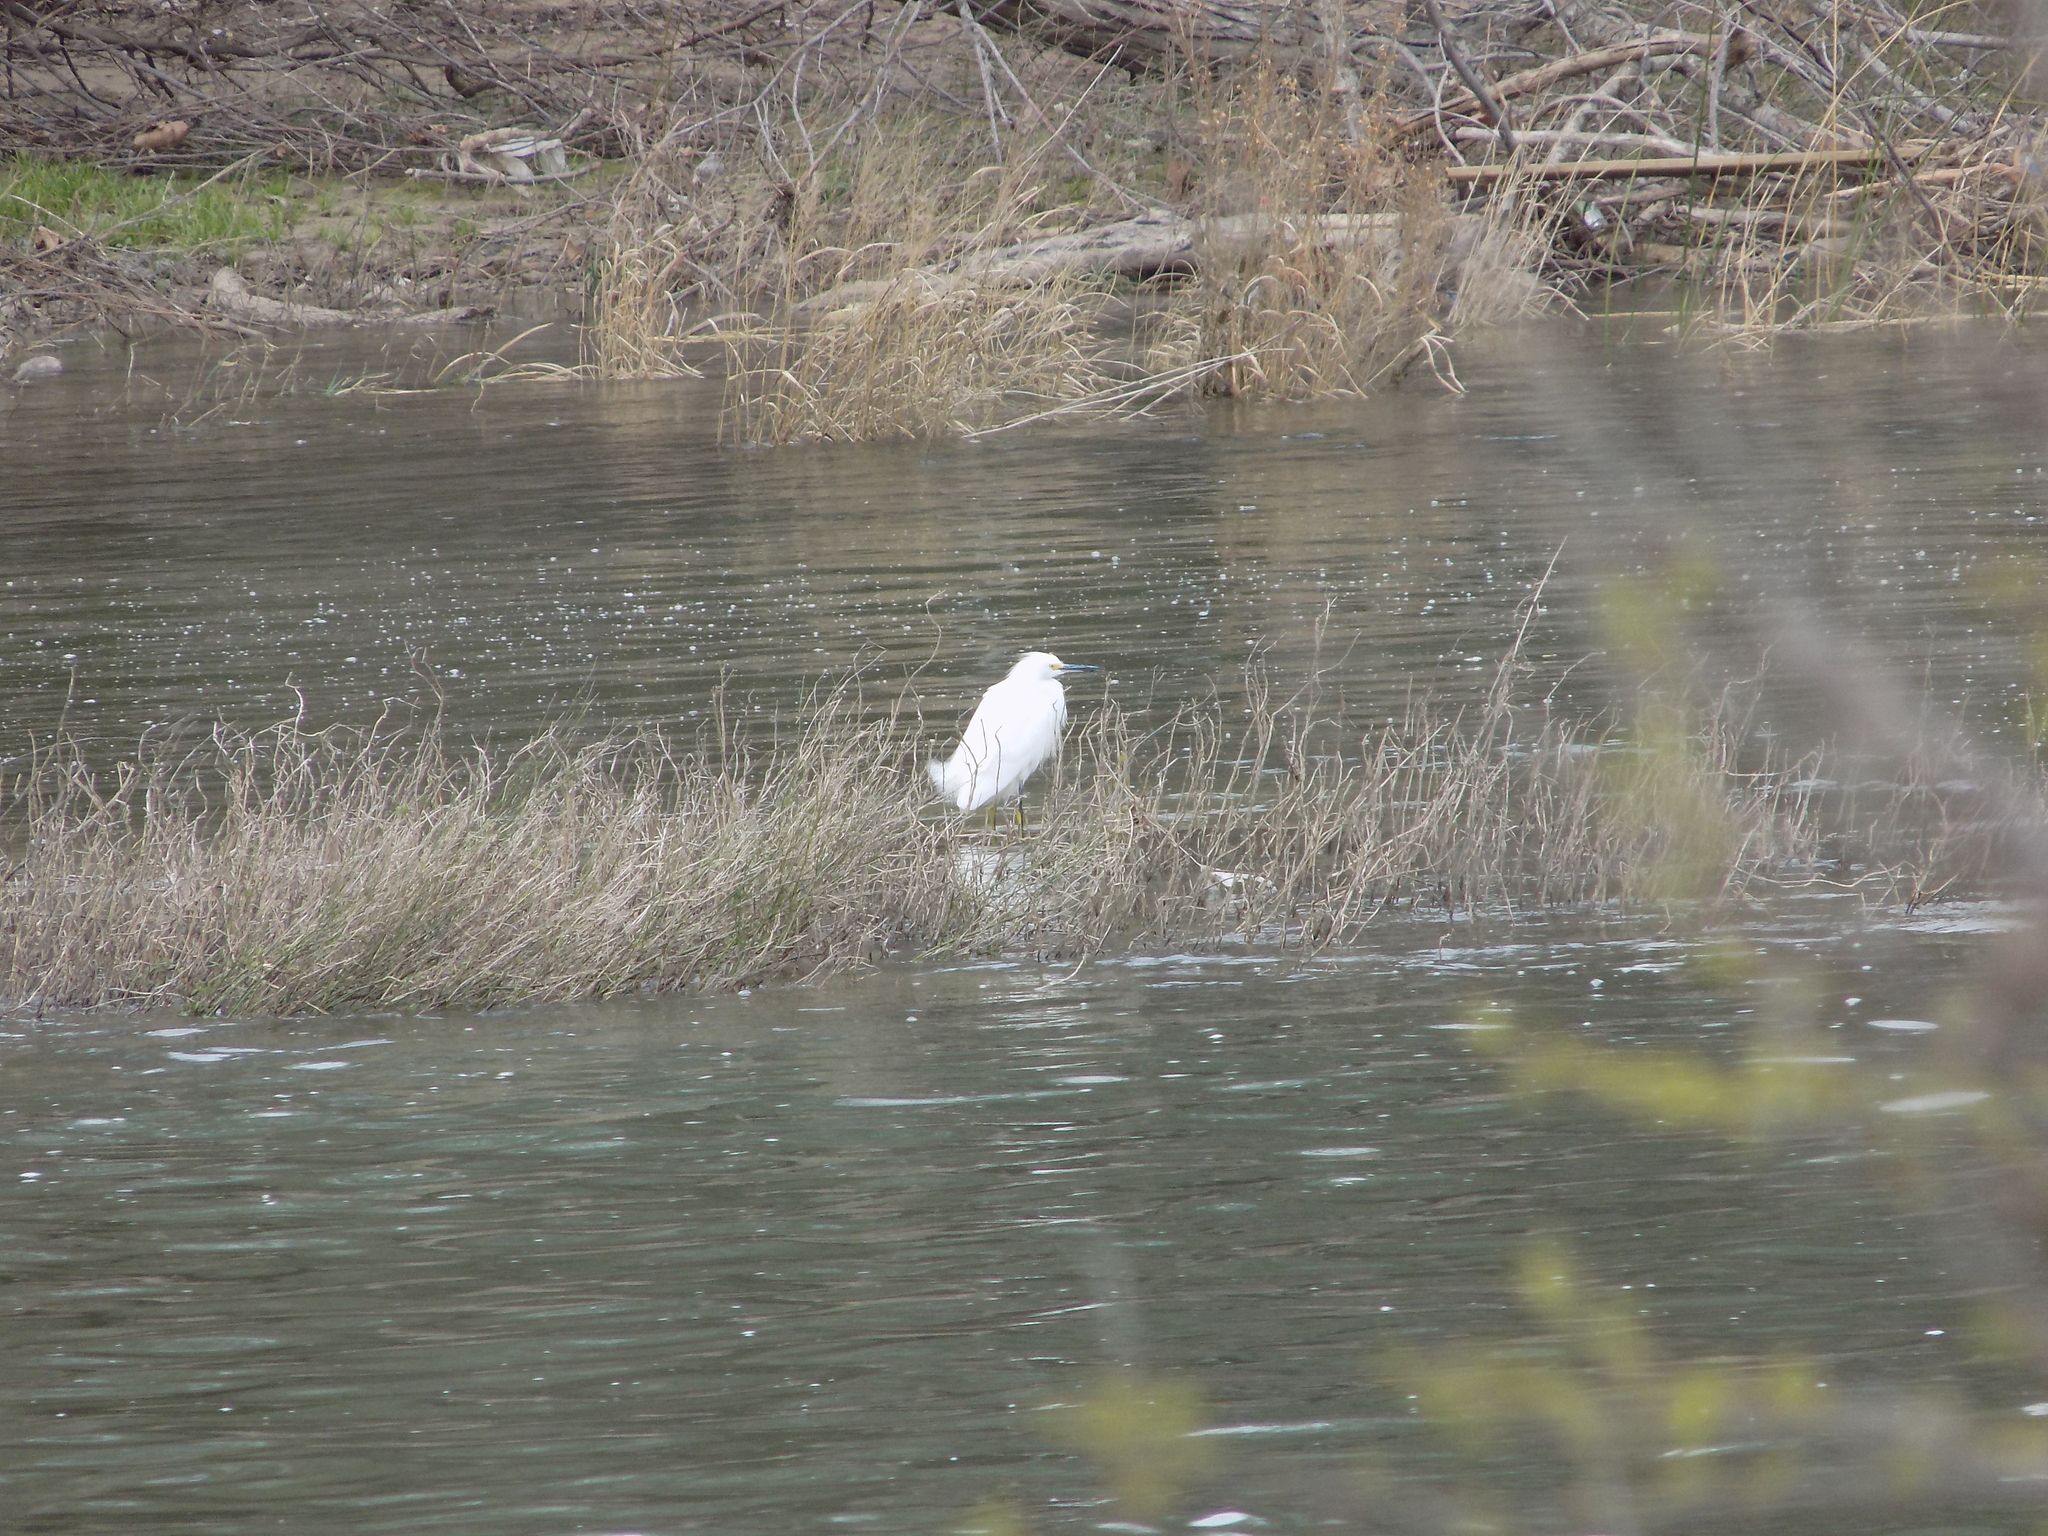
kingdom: Animalia
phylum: Chordata
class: Aves
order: Pelecaniformes
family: Ardeidae
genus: Egretta
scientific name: Egretta thula
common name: Snowy egret
